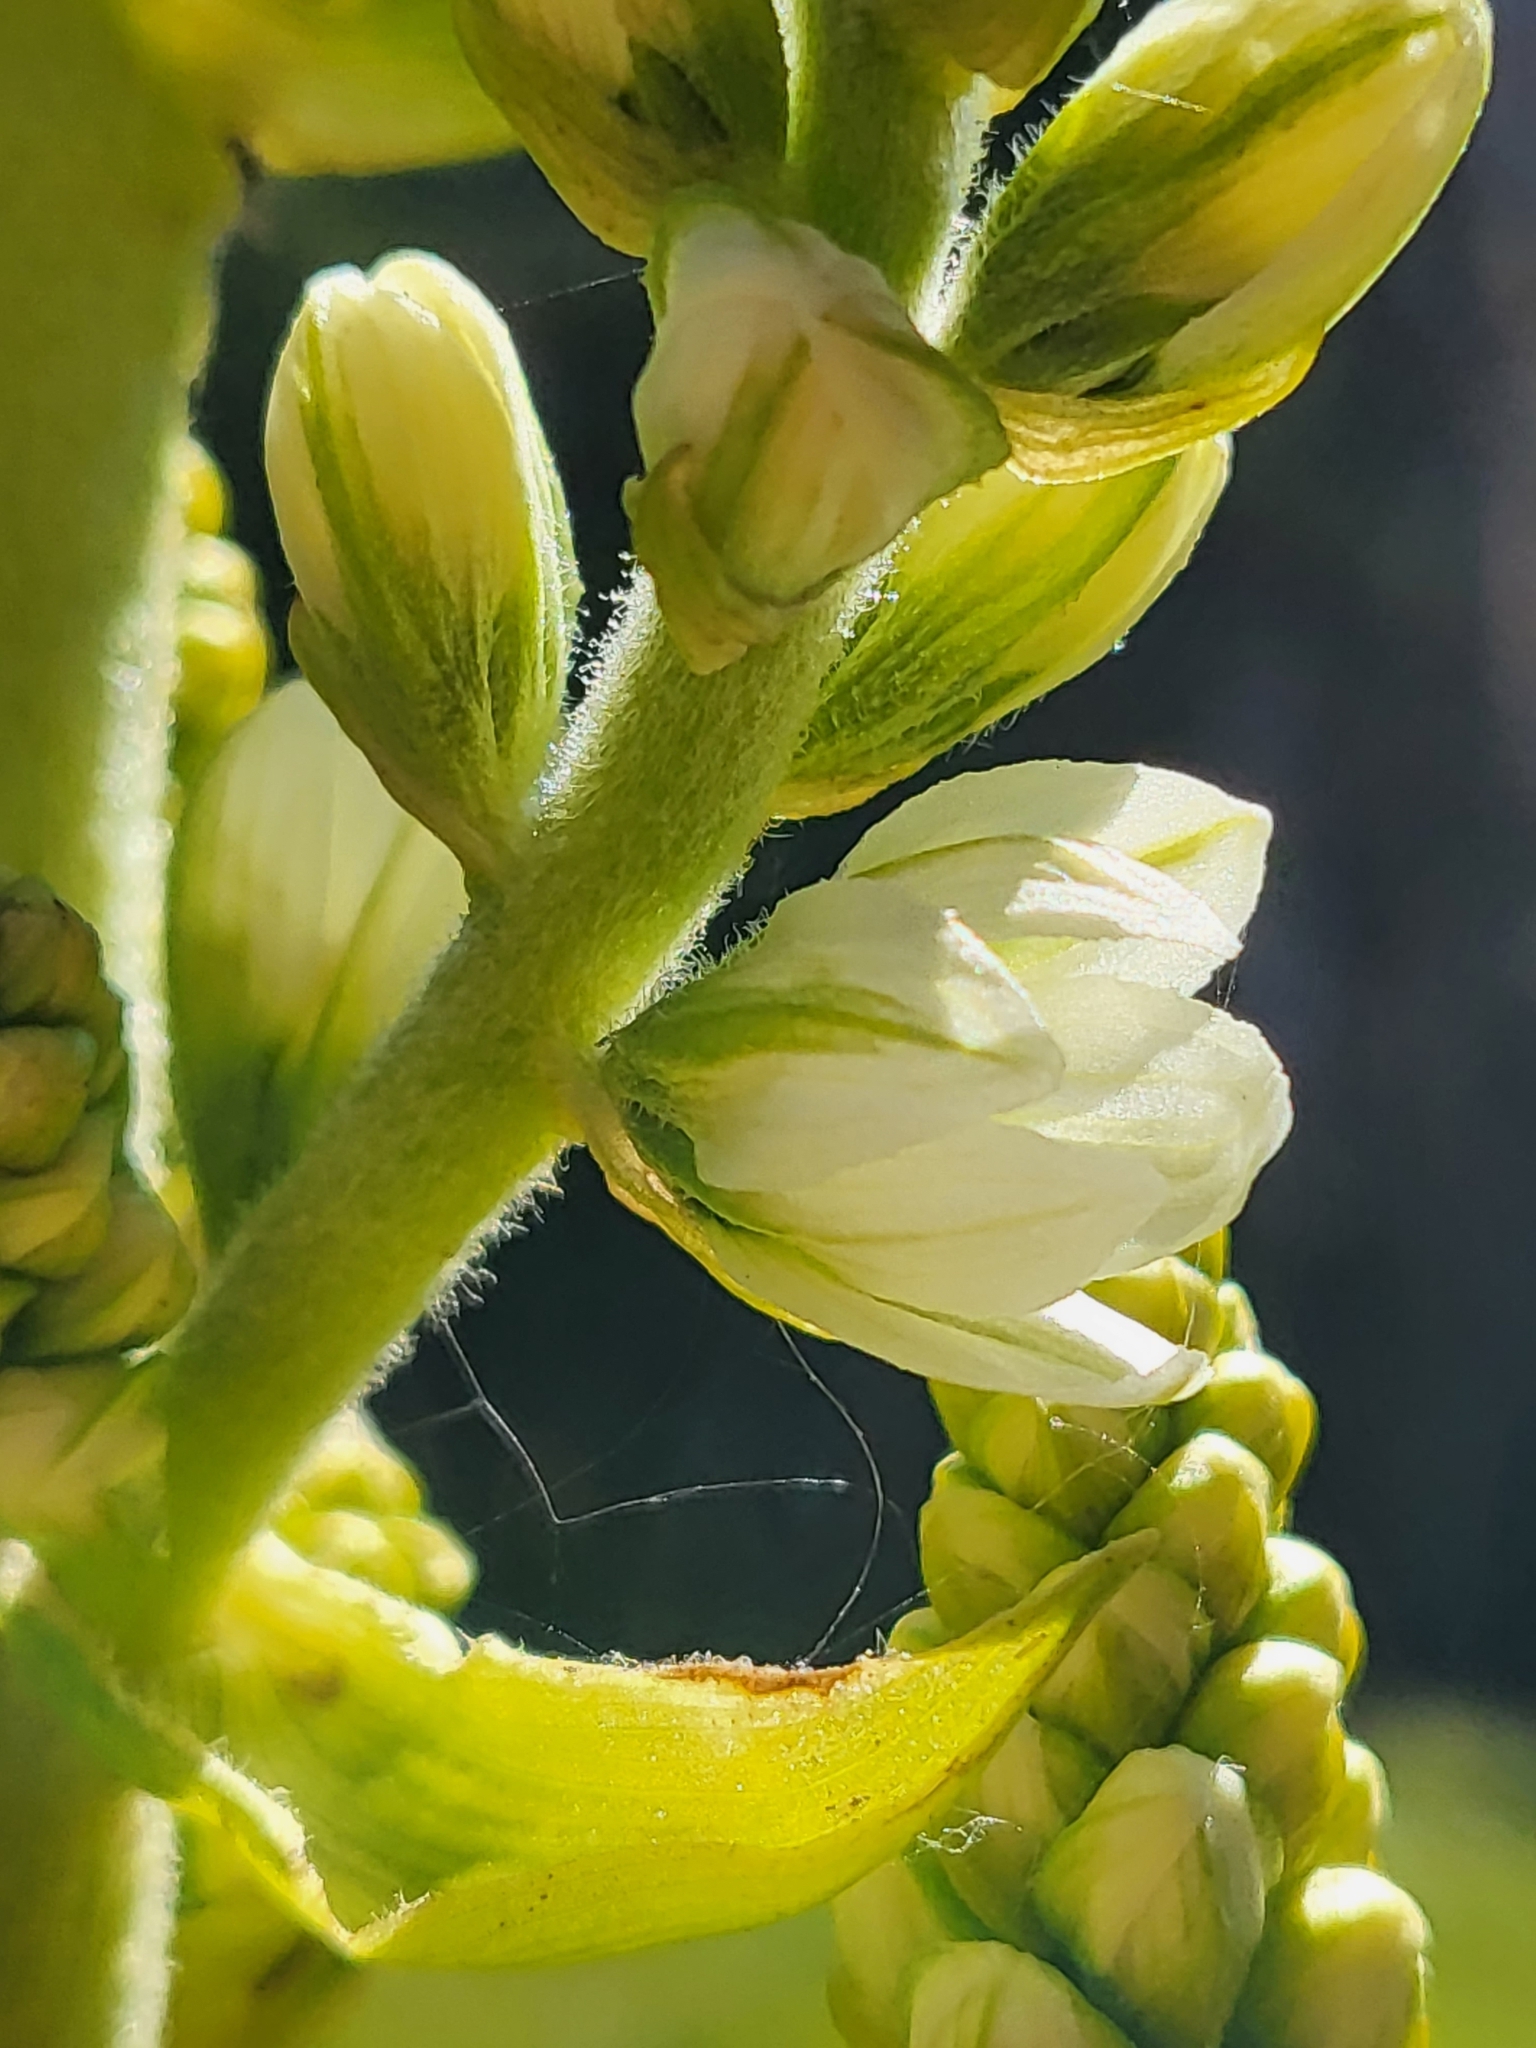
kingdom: Plantae
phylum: Tracheophyta
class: Liliopsida
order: Liliales
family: Melanthiaceae
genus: Veratrum
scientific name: Veratrum californicum
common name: California veratrum
